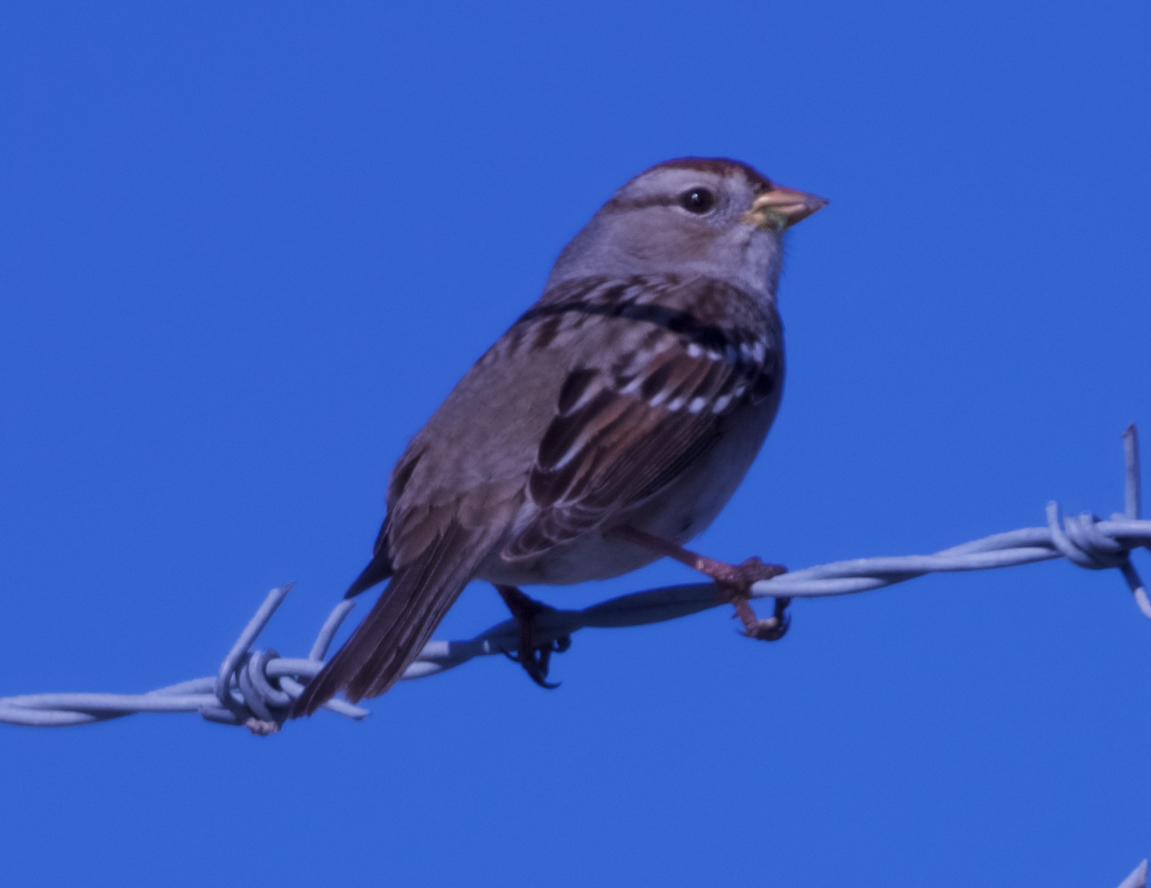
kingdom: Animalia
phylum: Chordata
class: Aves
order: Passeriformes
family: Passerellidae
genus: Zonotrichia
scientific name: Zonotrichia leucophrys
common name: White-crowned sparrow
